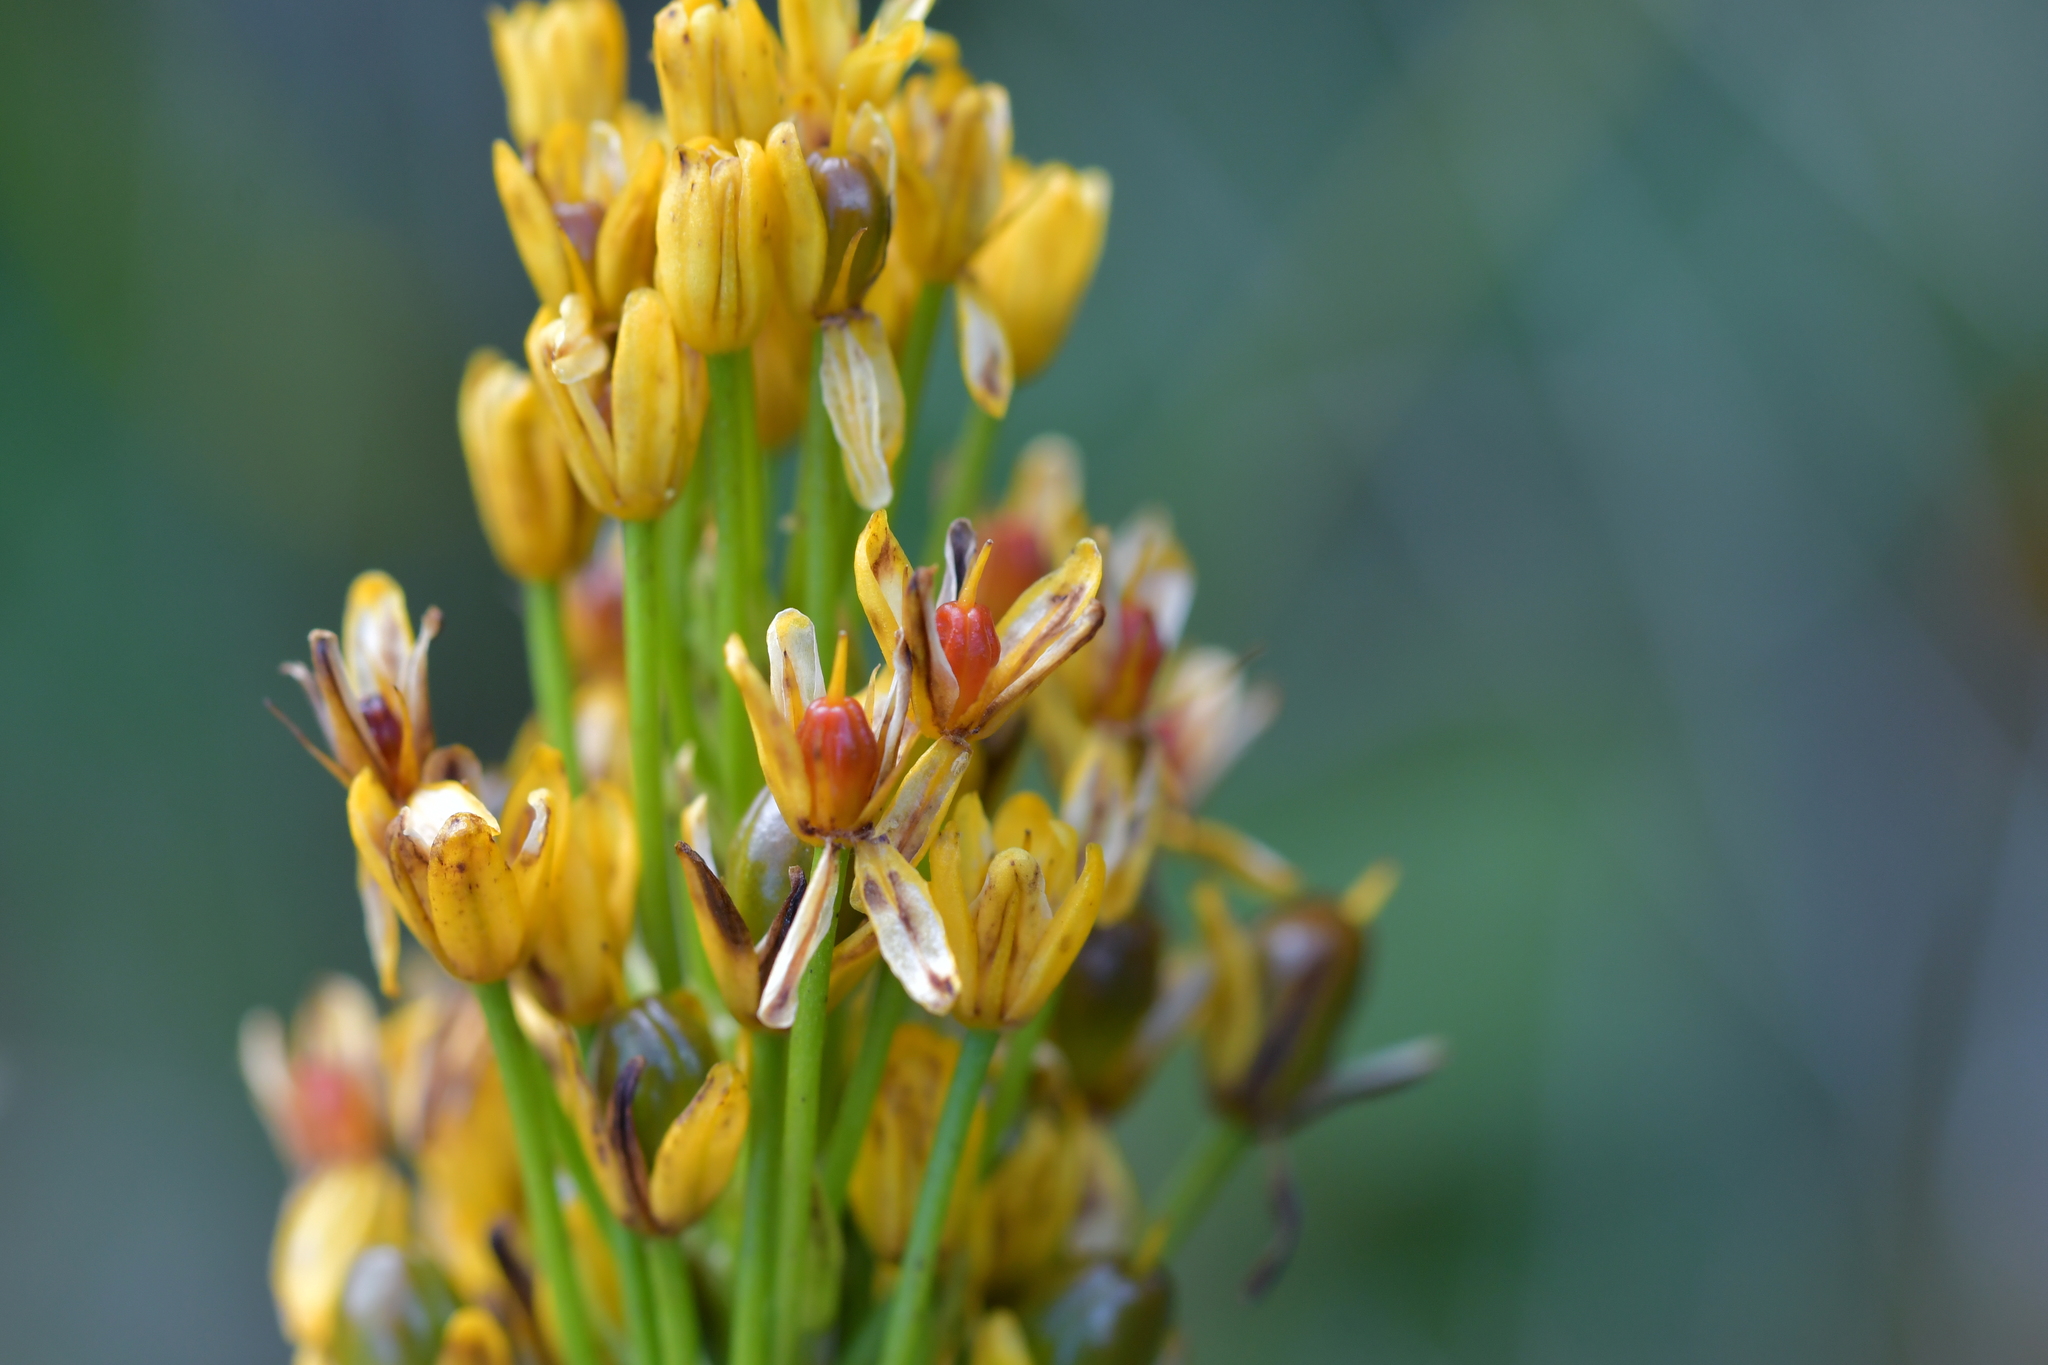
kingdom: Plantae
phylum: Tracheophyta
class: Liliopsida
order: Asparagales
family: Asphodelaceae
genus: Bulbinella
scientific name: Bulbinella hookeri
